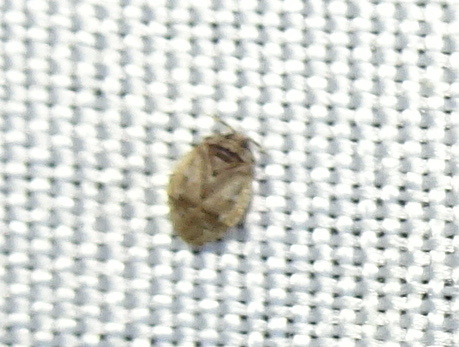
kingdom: Animalia
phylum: Arthropoda
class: Insecta
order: Hemiptera
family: Miridae
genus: Diphleps
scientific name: Diphleps unica
